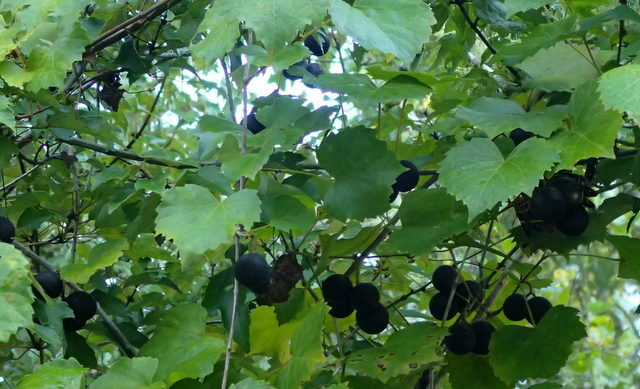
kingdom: Plantae
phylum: Tracheophyta
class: Magnoliopsida
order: Vitales
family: Vitaceae
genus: Vitis
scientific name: Vitis rotundifolia
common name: Muscadine grape
